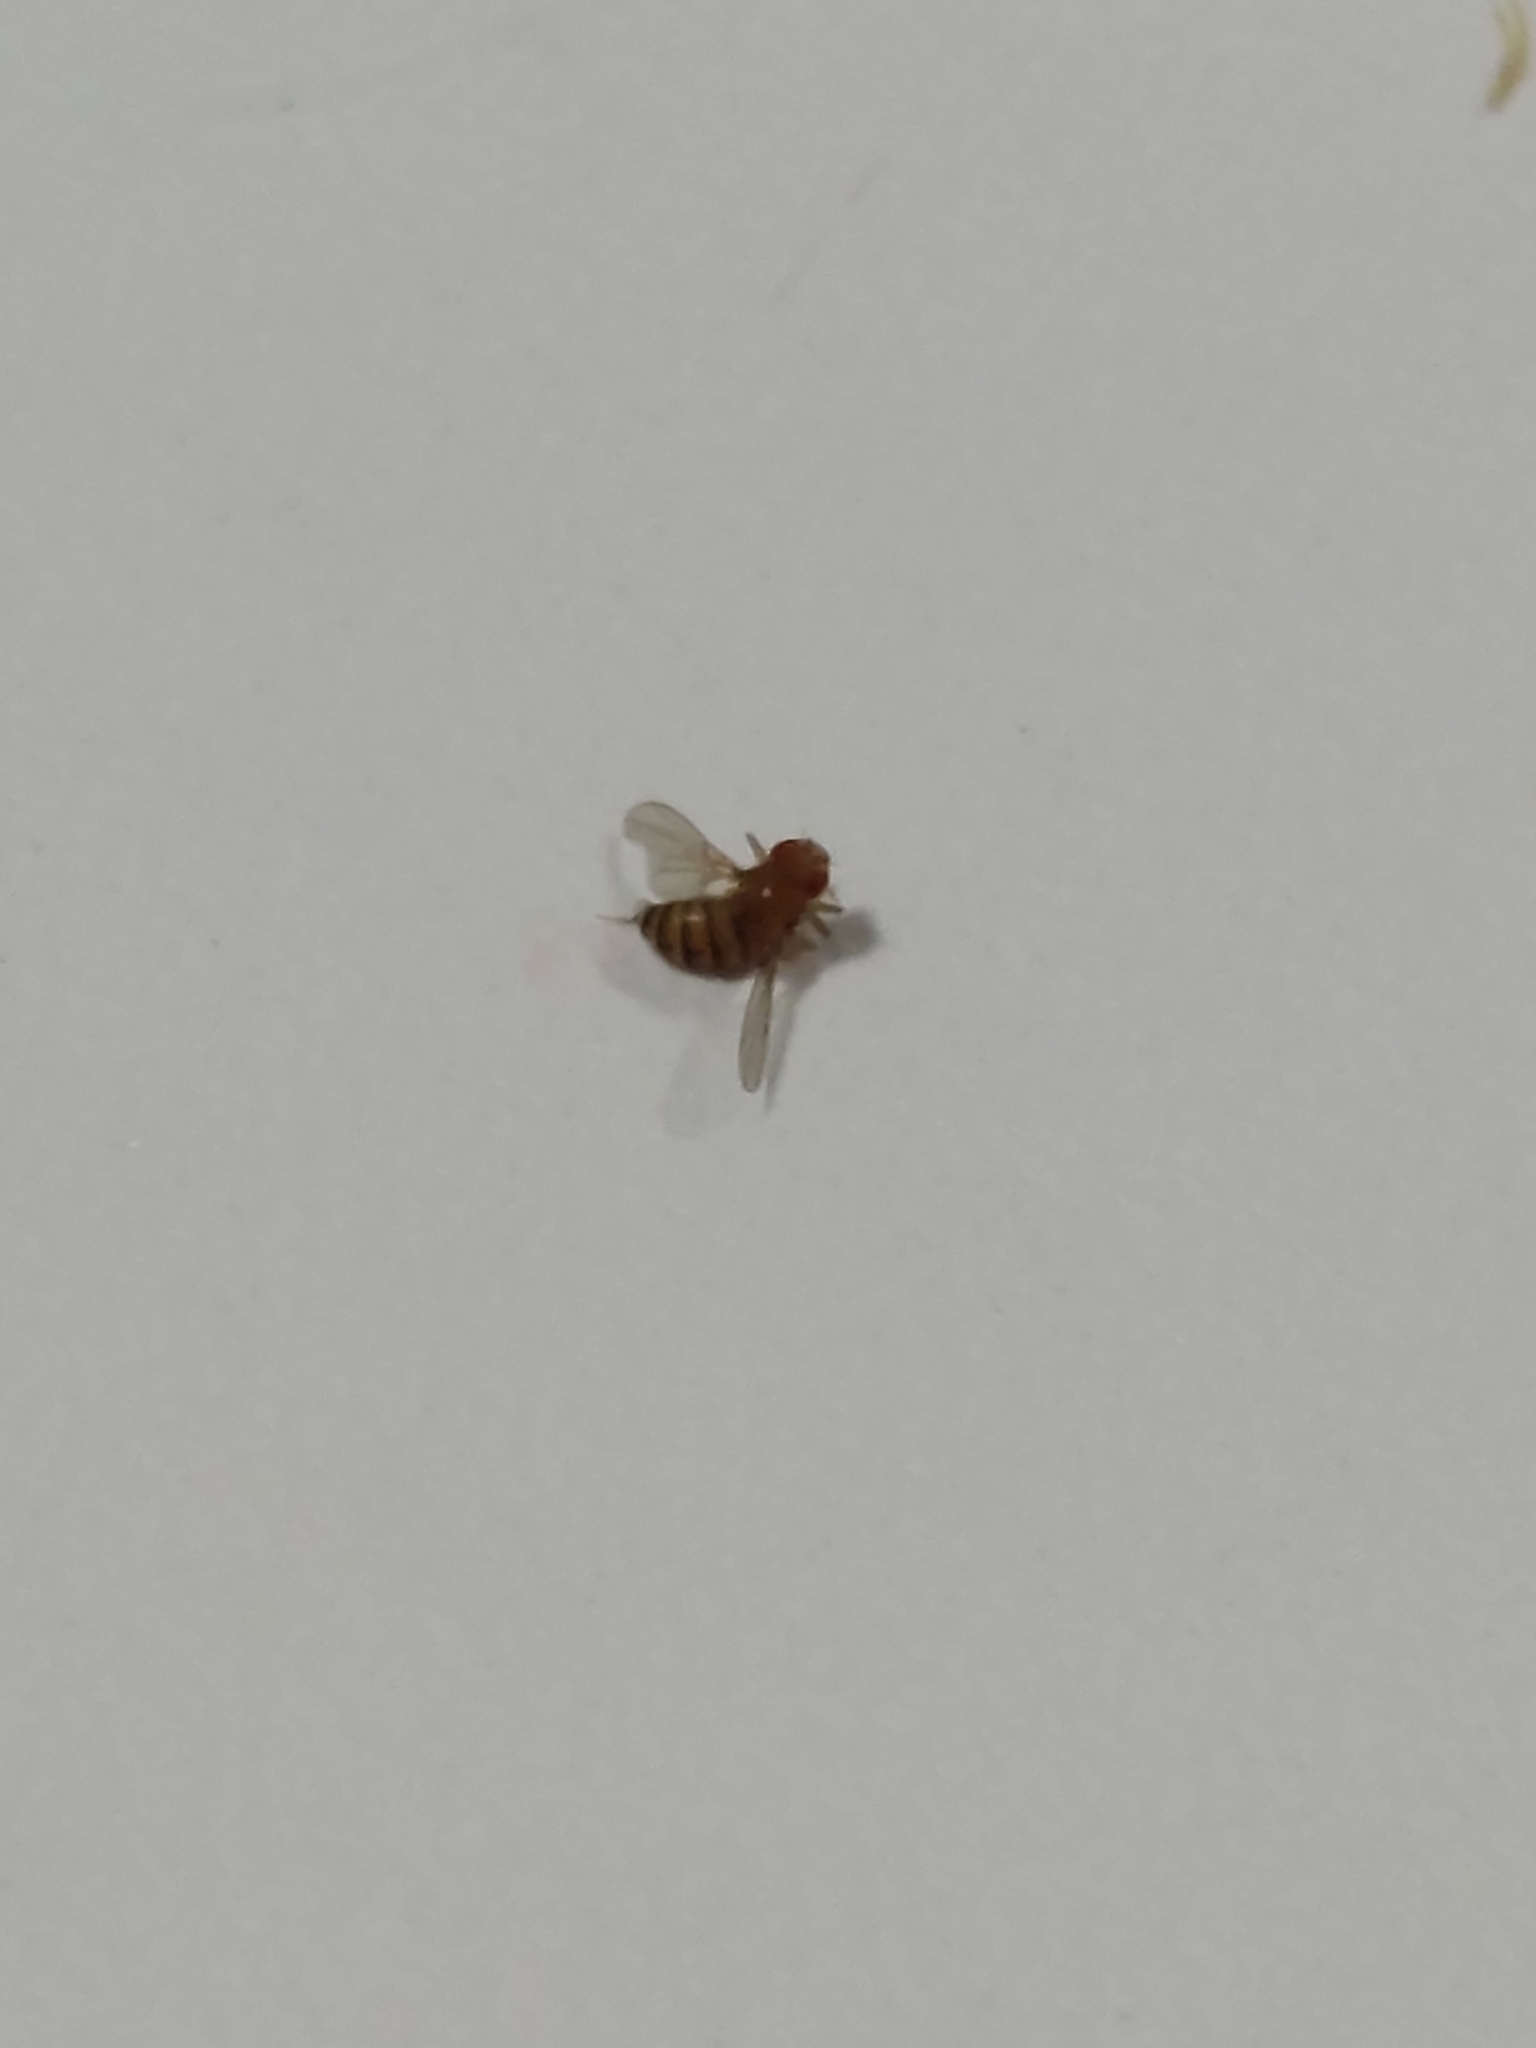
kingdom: Animalia
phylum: Arthropoda
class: Insecta
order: Diptera
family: Drosophilidae
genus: Drosophila
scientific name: Drosophila
